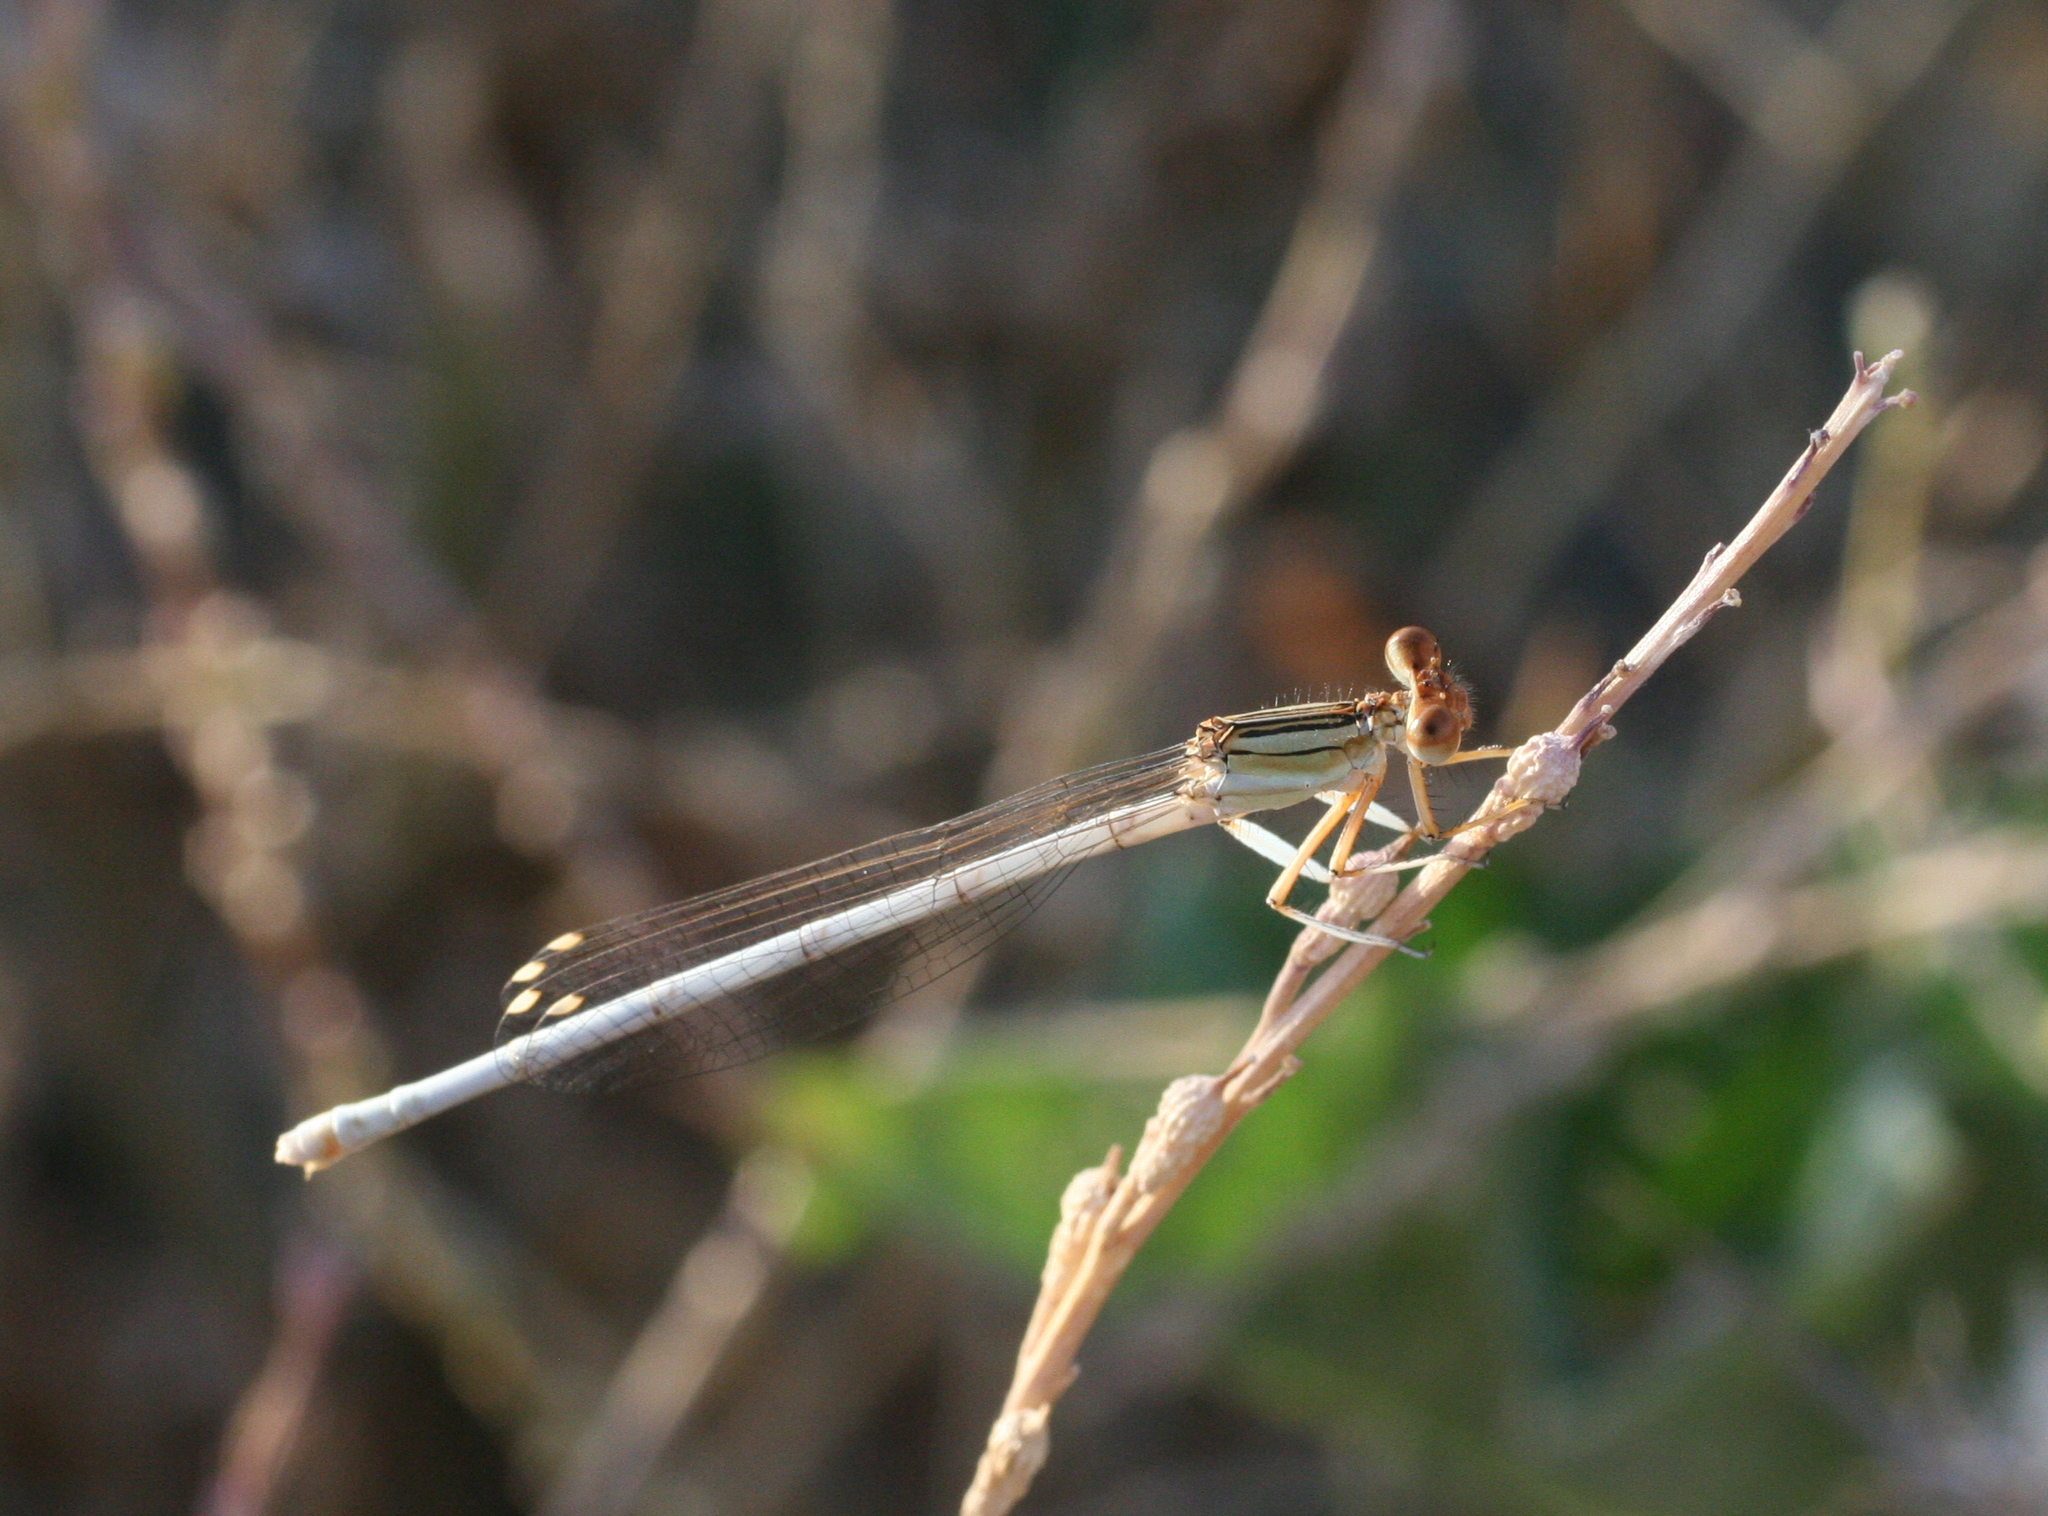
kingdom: Animalia
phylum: Arthropoda
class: Insecta
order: Odonata
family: Platycnemididae
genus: Platycnemis
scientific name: Platycnemis dealbata
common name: Ivory featherleg
